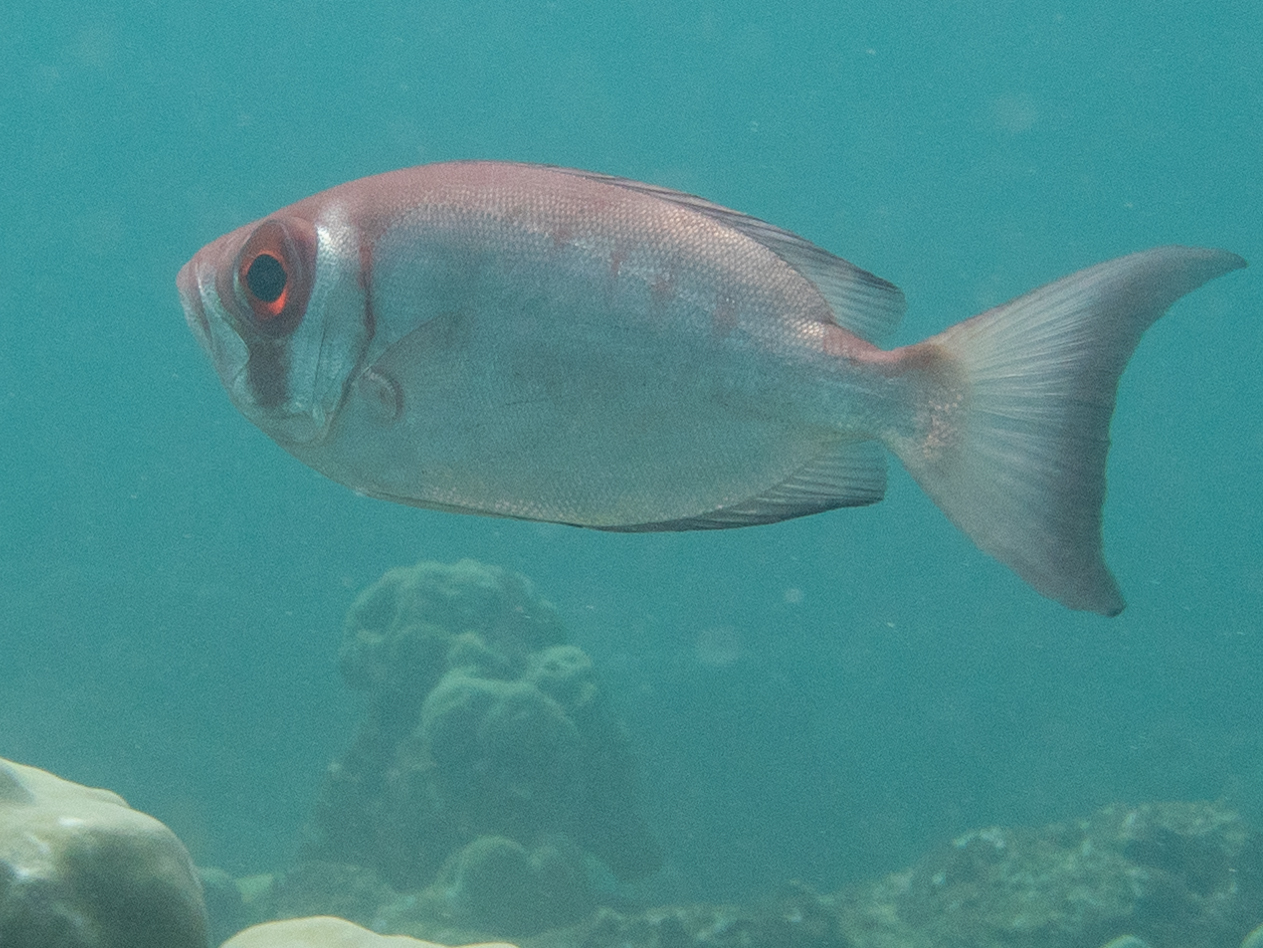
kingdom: Animalia
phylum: Chordata
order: Perciformes
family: Priacanthidae
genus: Priacanthus
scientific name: Priacanthus hamrur
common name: Moontail bullseye
